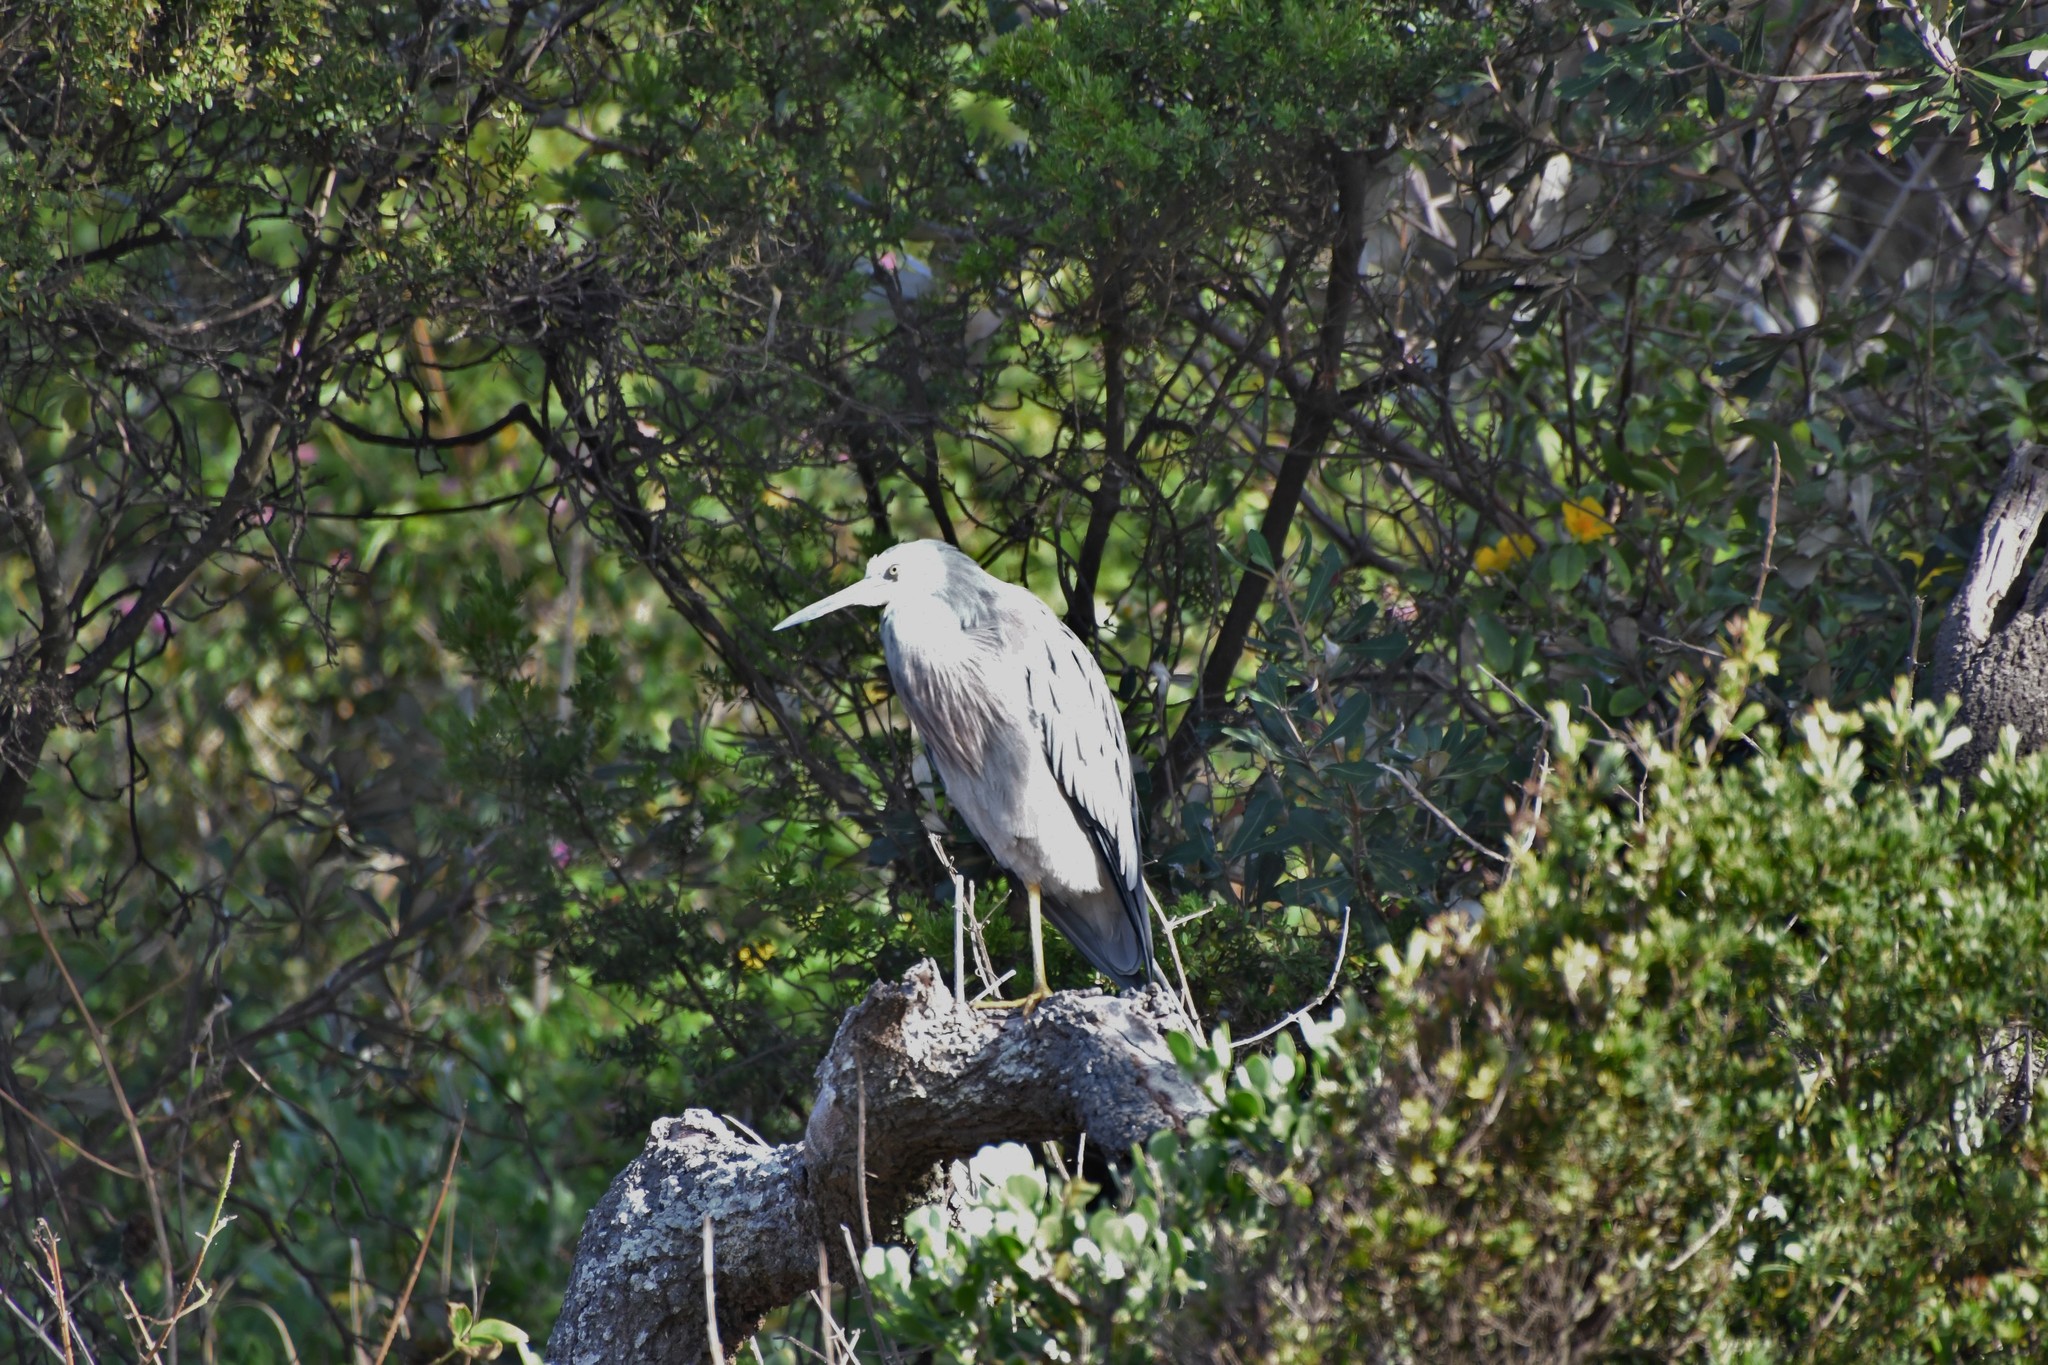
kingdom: Animalia
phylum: Chordata
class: Aves
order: Pelecaniformes
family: Ardeidae
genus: Egretta
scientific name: Egretta novaehollandiae
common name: White-faced heron
